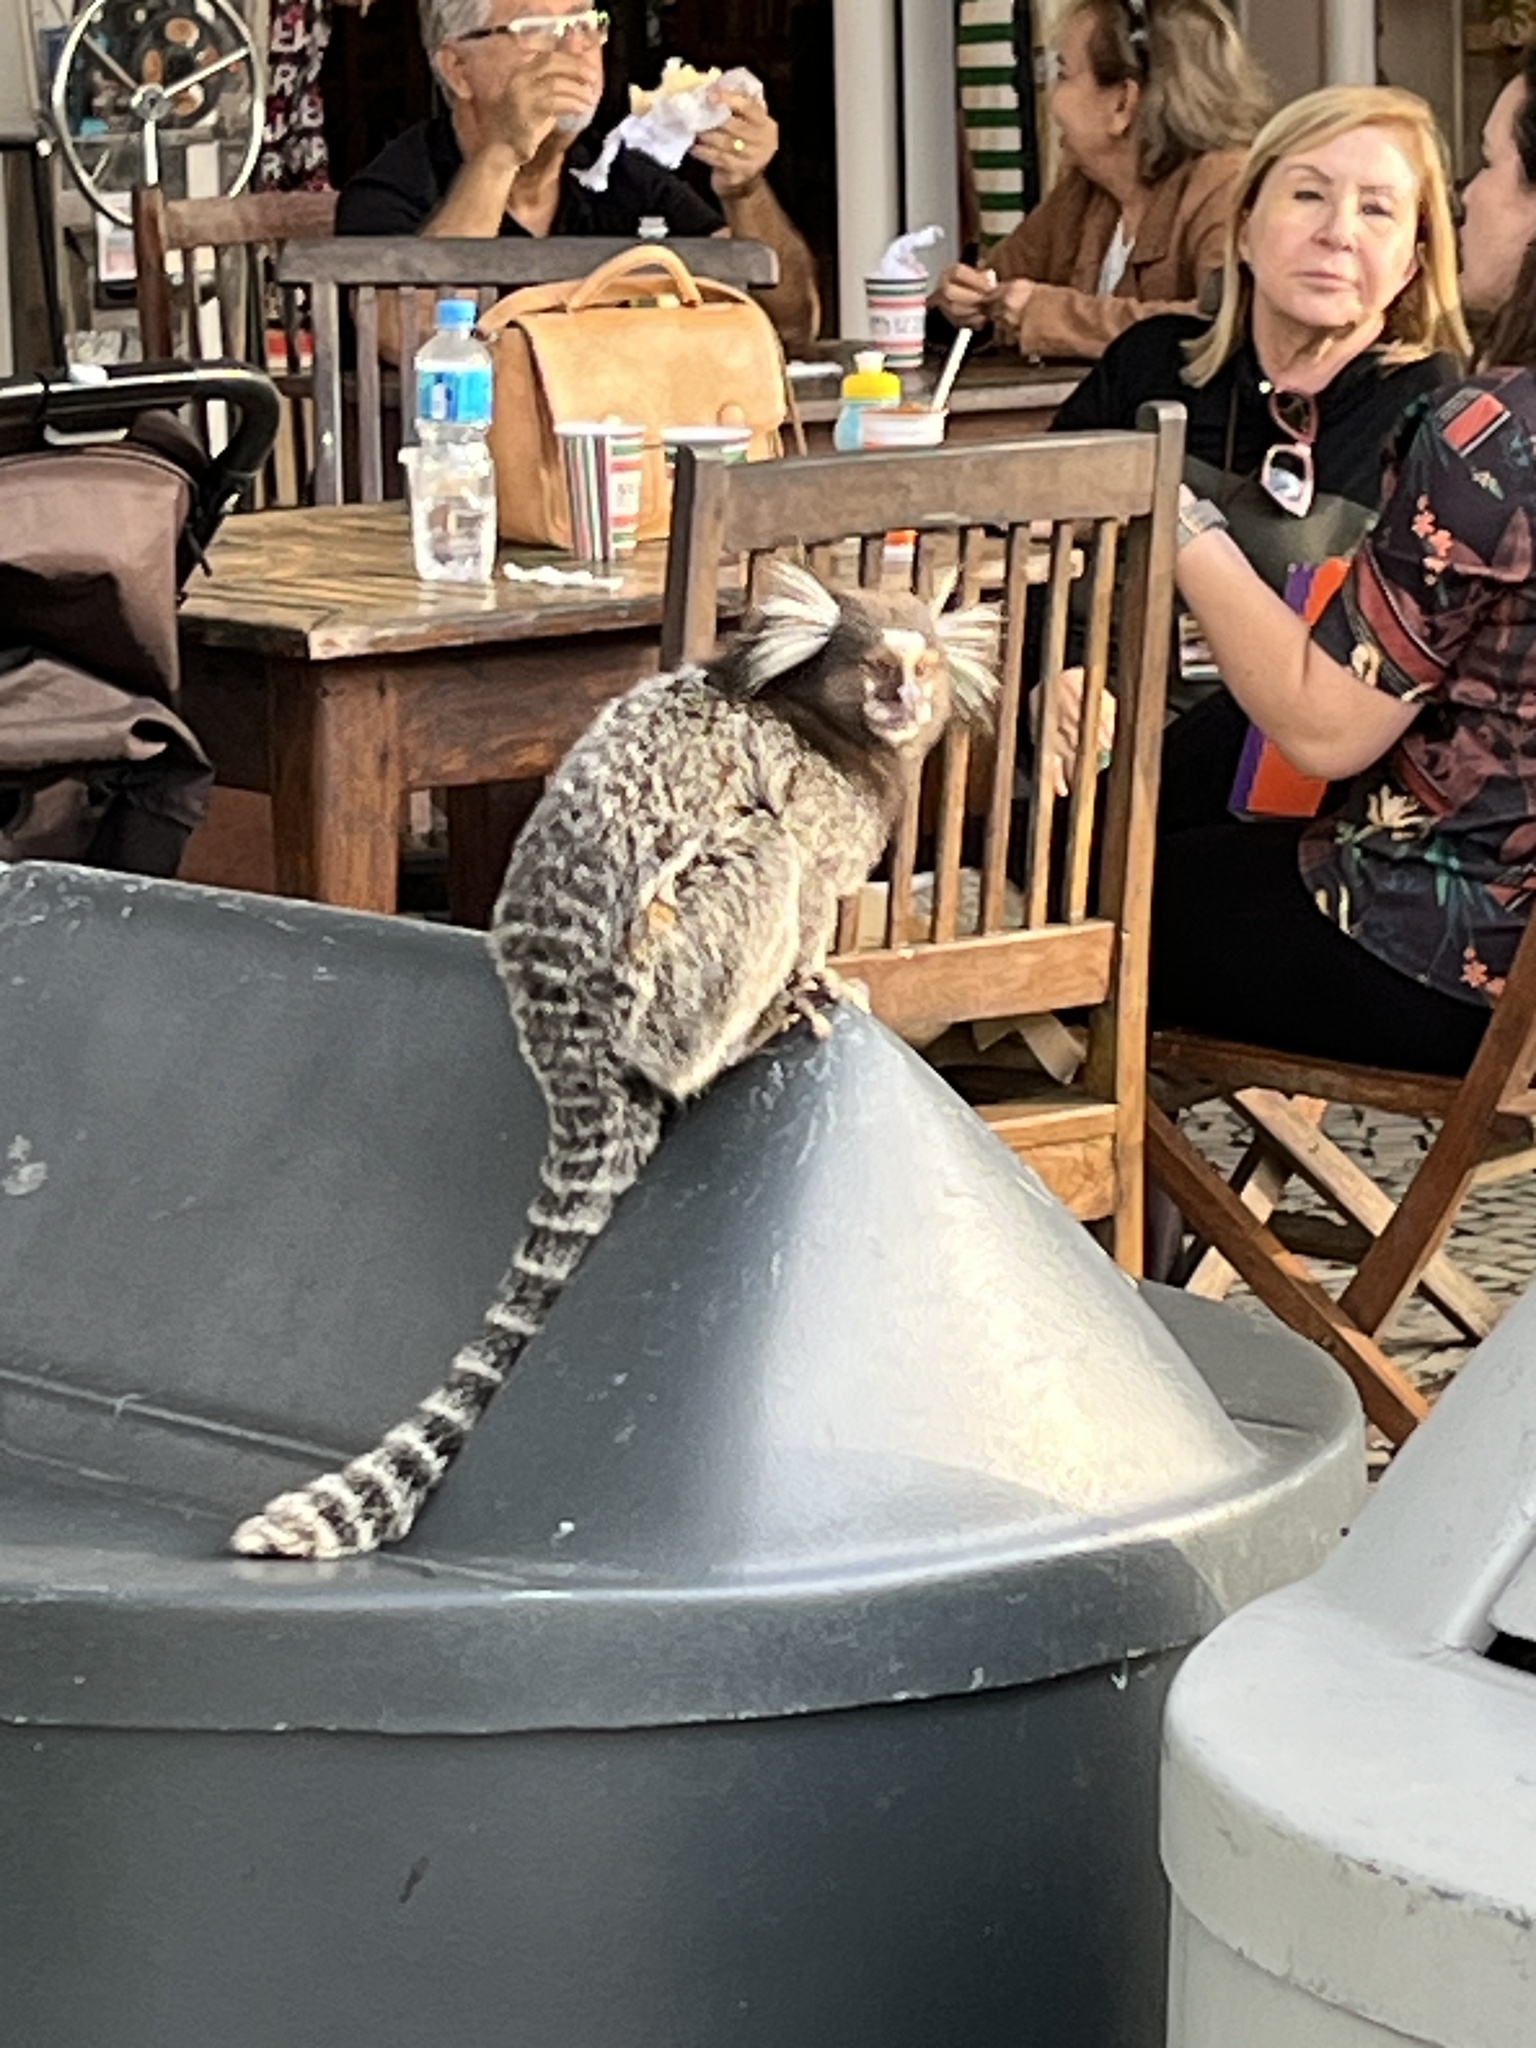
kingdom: Animalia
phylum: Chordata
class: Mammalia
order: Primates
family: Callitrichidae
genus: Callithrix
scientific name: Callithrix jacchus
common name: Common marmoset
